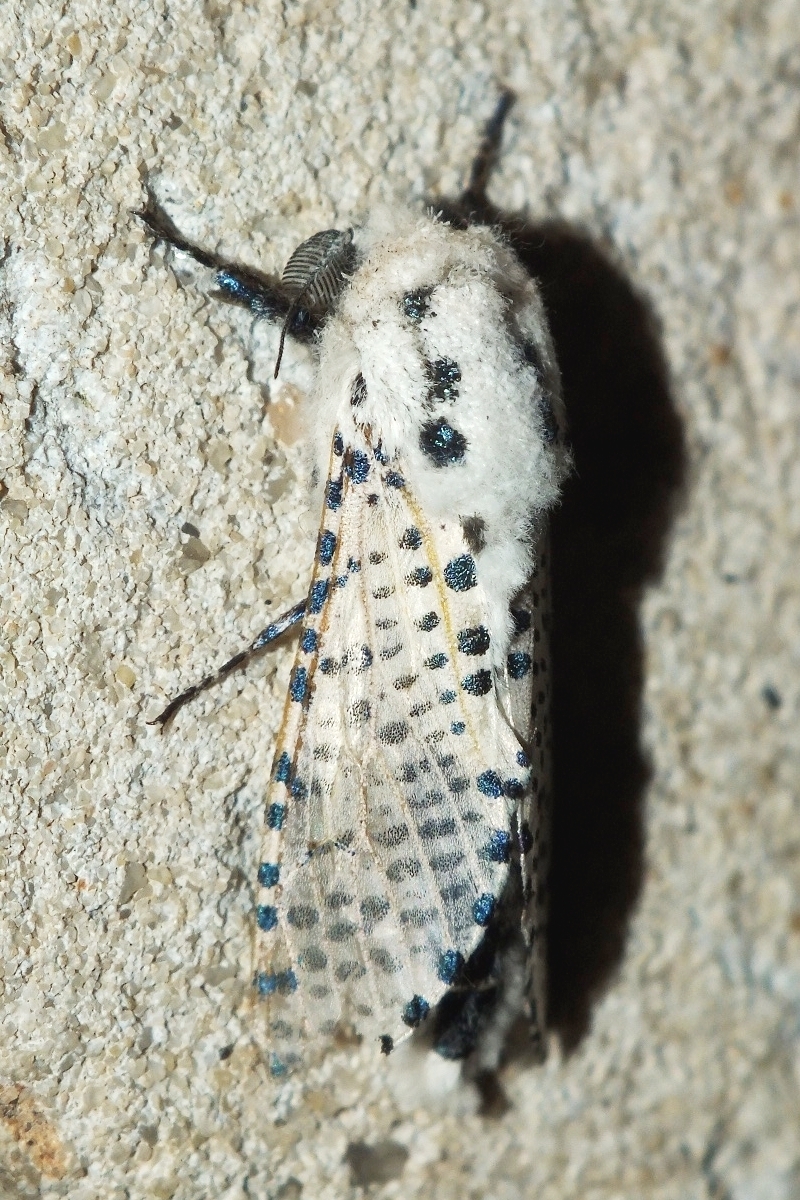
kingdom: Animalia
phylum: Arthropoda
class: Insecta
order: Lepidoptera
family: Cossidae
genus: Zeuzera
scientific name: Zeuzera pyrina
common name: Leopard moth
